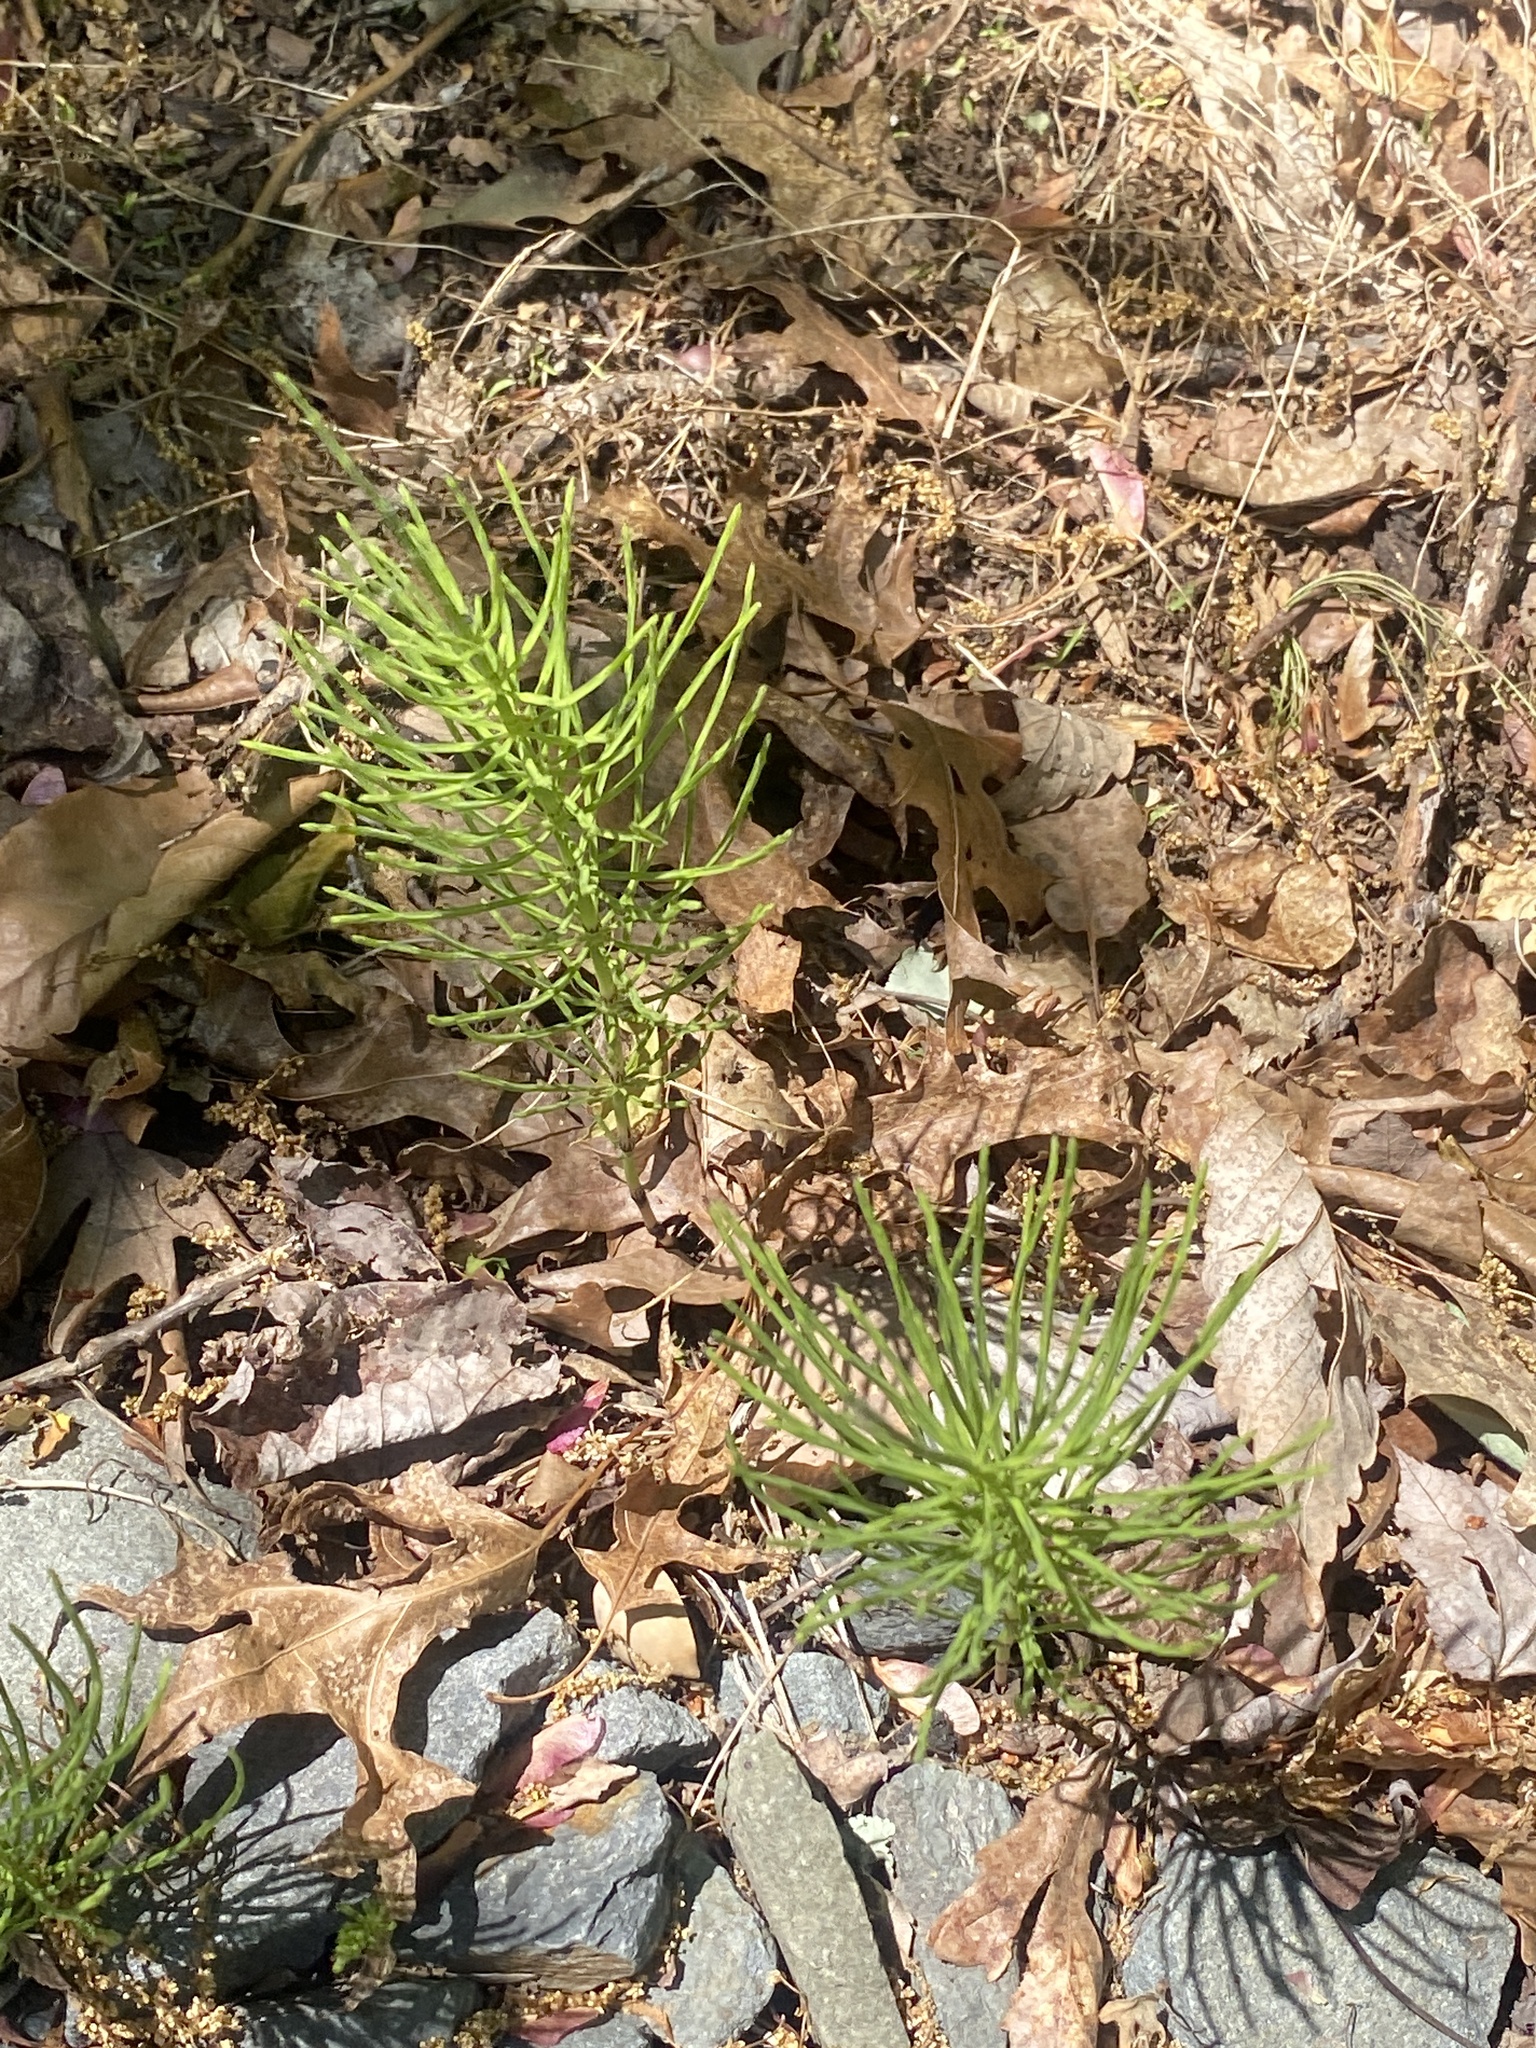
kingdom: Plantae
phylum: Tracheophyta
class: Polypodiopsida
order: Equisetales
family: Equisetaceae
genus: Equisetum
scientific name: Equisetum arvense
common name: Field horsetail
